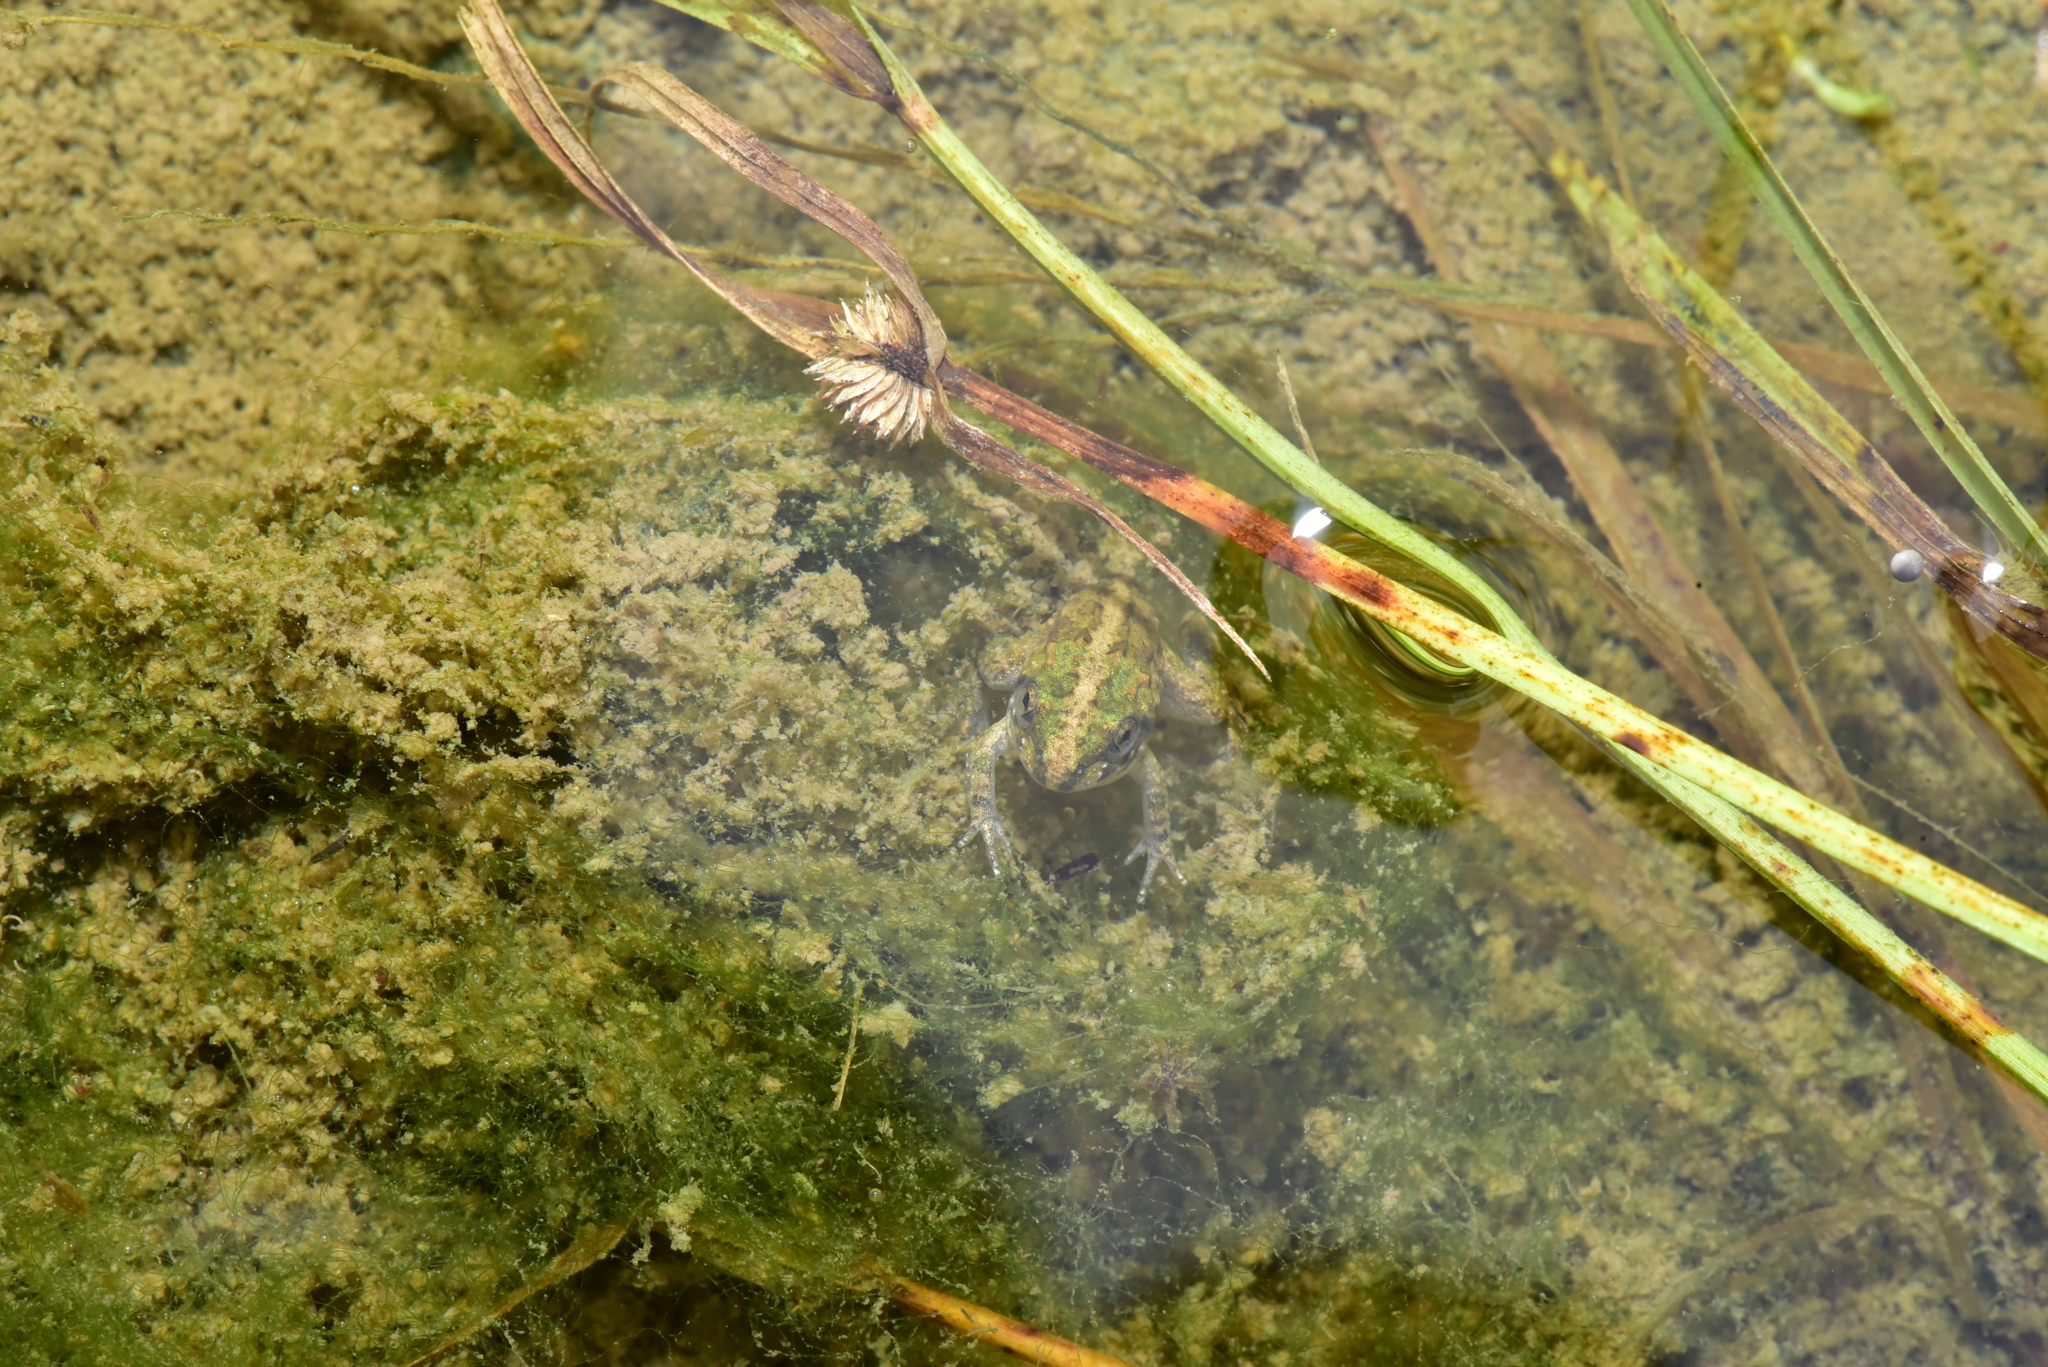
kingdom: Animalia
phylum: Chordata
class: Amphibia
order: Anura
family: Dicroglossidae
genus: Fejervarya
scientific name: Fejervarya limnocharis
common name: Asian grass frog/common pond frog/field frog/grass frog/indian rice frog
